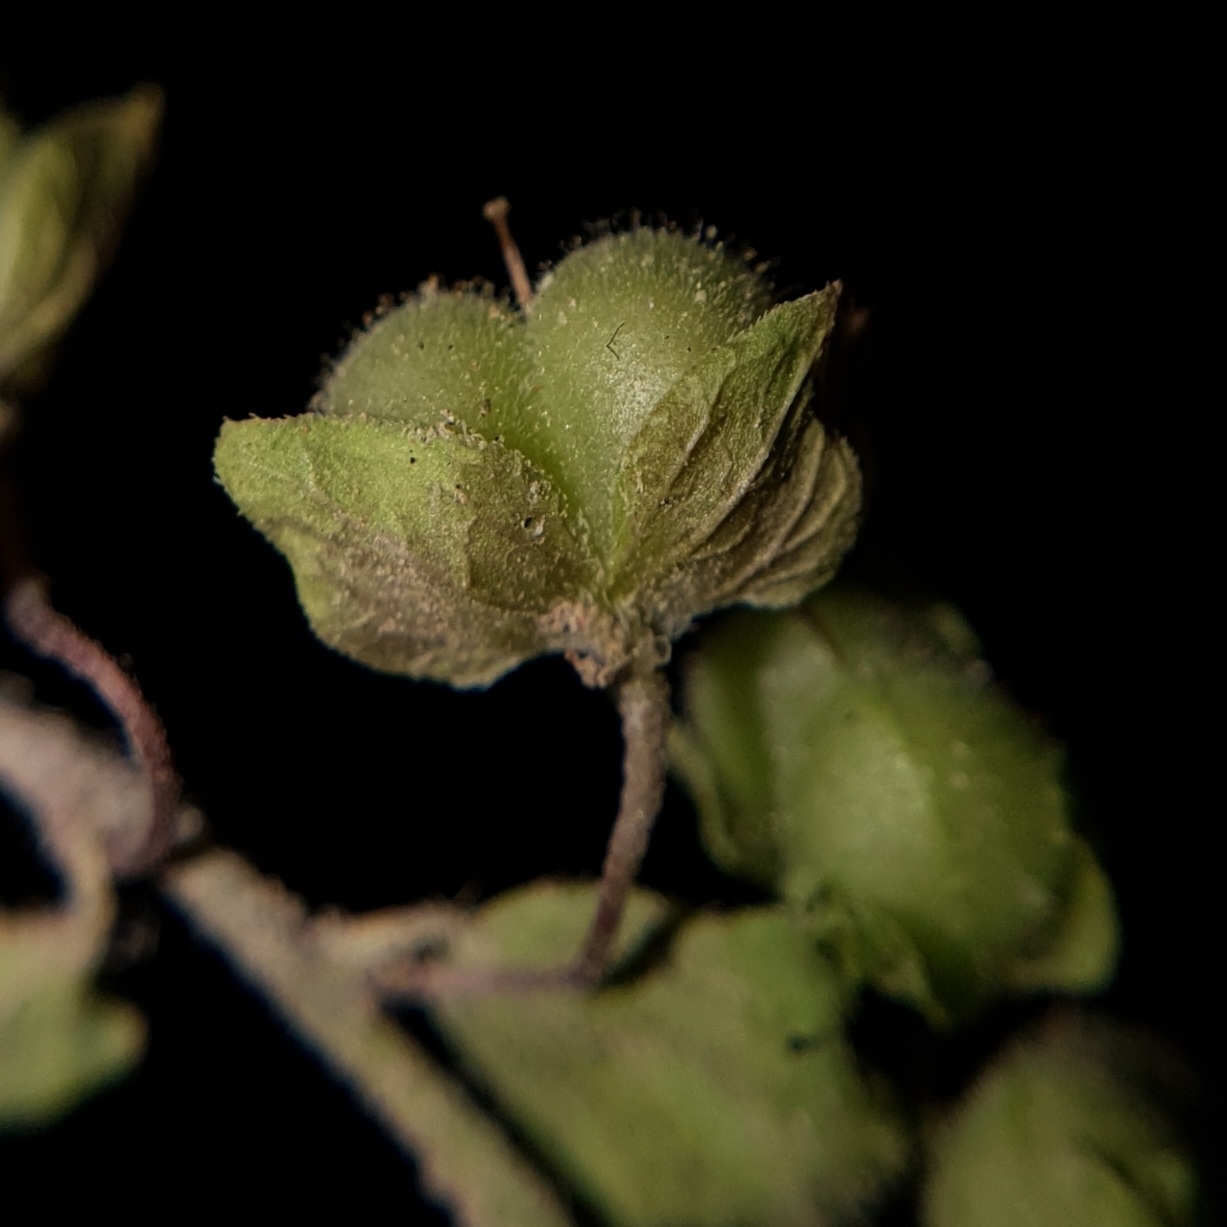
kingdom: Plantae
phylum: Tracheophyta
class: Magnoliopsida
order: Lamiales
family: Plantaginaceae
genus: Veronica
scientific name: Veronica polita
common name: Grey field-speedwell
